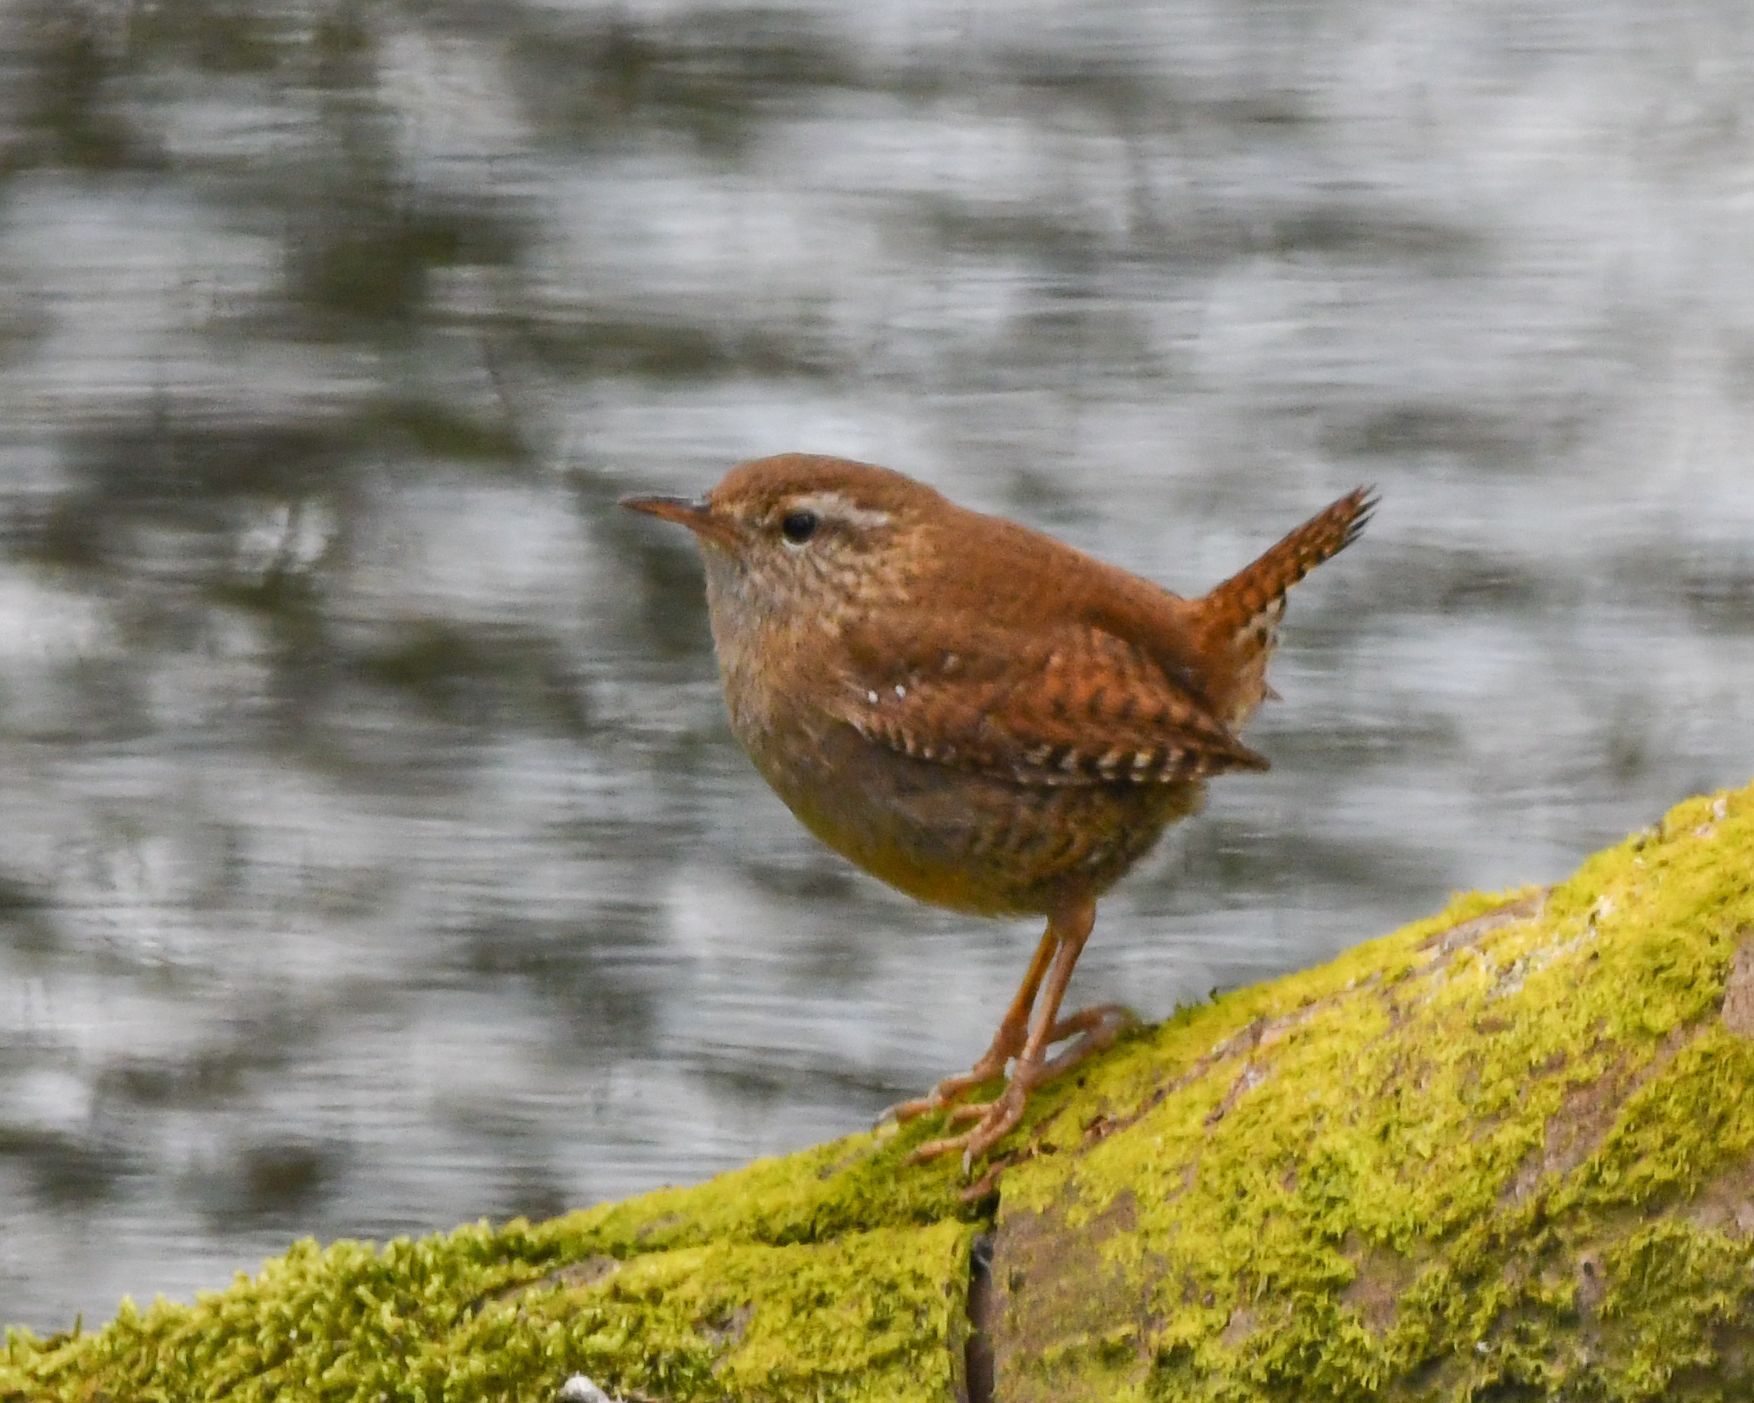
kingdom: Animalia
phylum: Chordata
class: Aves
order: Passeriformes
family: Troglodytidae
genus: Troglodytes
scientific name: Troglodytes troglodytes
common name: Eurasian wren
